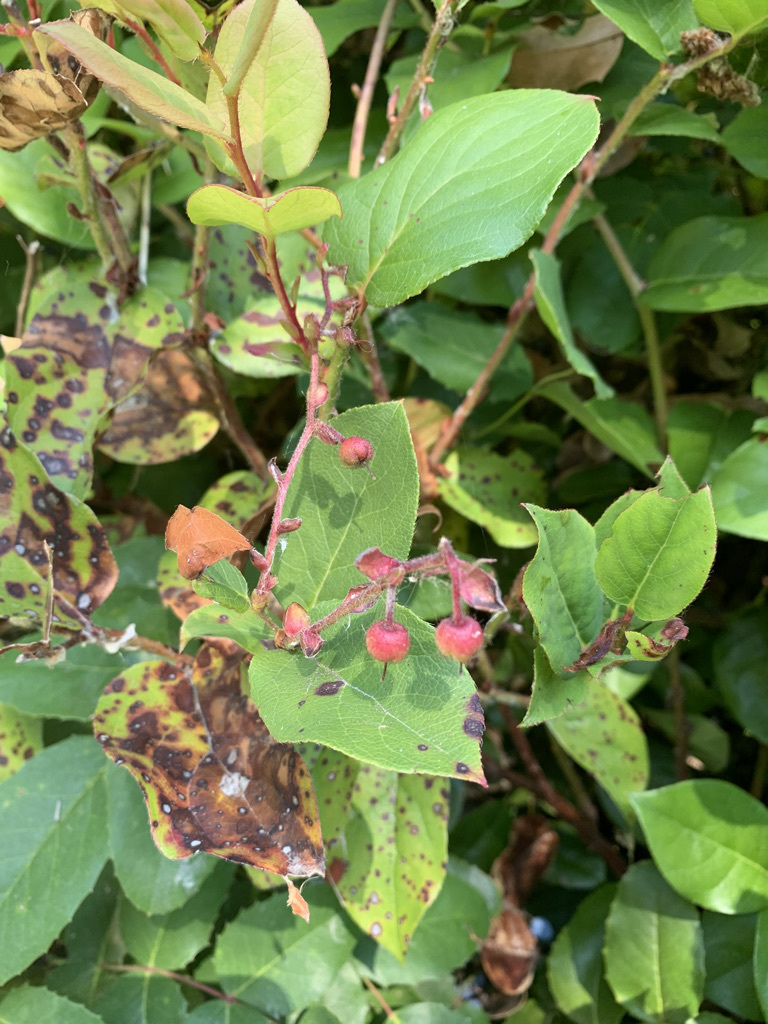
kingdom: Plantae
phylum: Tracheophyta
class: Magnoliopsida
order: Ericales
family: Ericaceae
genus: Gaultheria
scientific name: Gaultheria shallon
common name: Shallon
